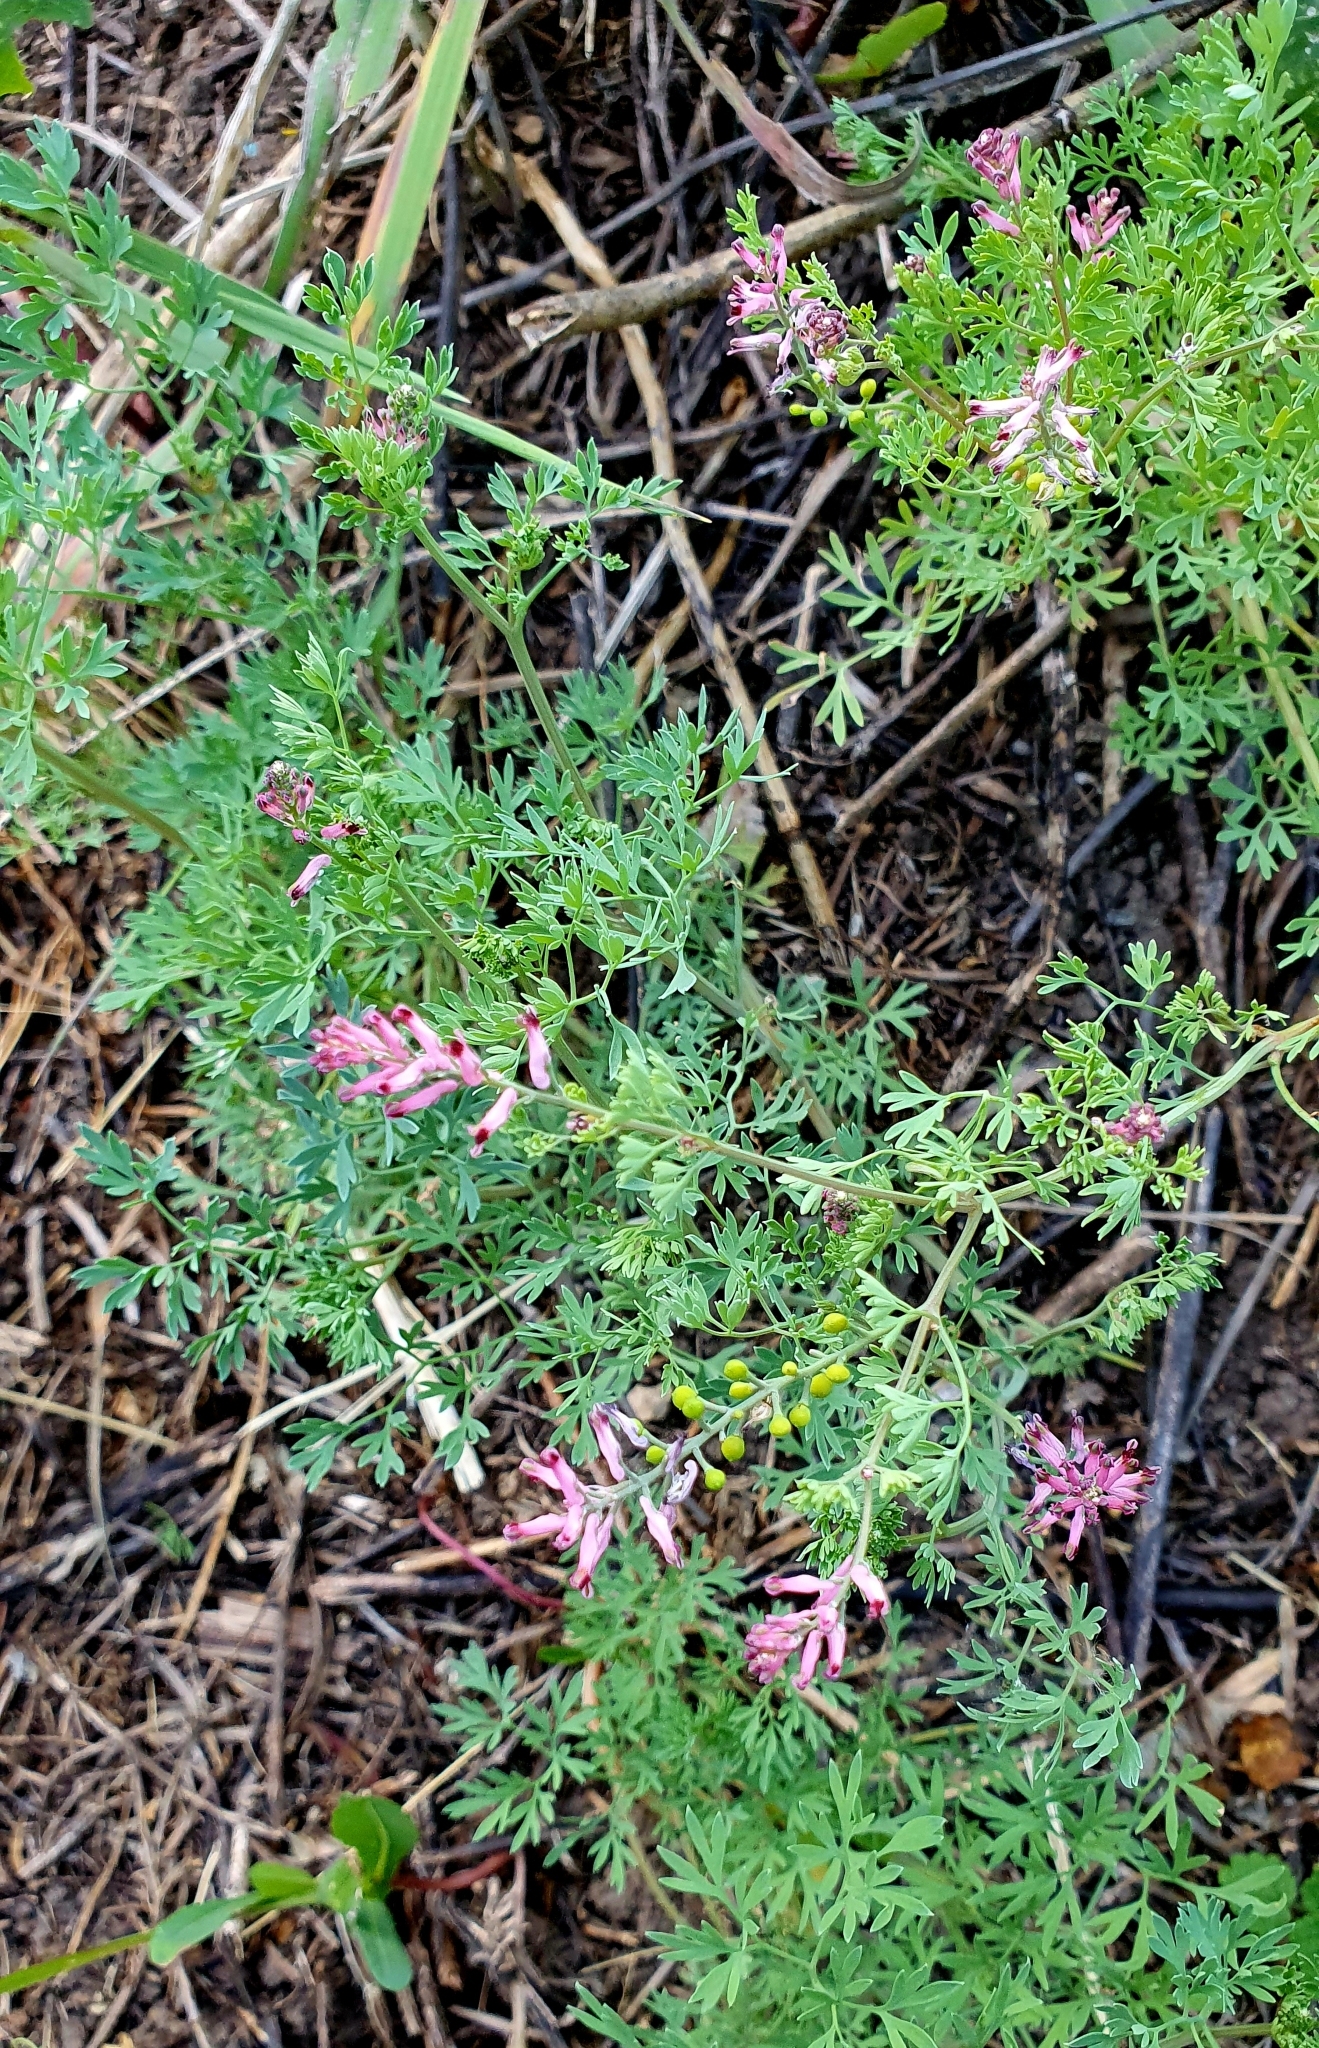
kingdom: Plantae
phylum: Tracheophyta
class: Magnoliopsida
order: Ranunculales
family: Papaveraceae
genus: Fumaria
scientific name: Fumaria schleicheri
